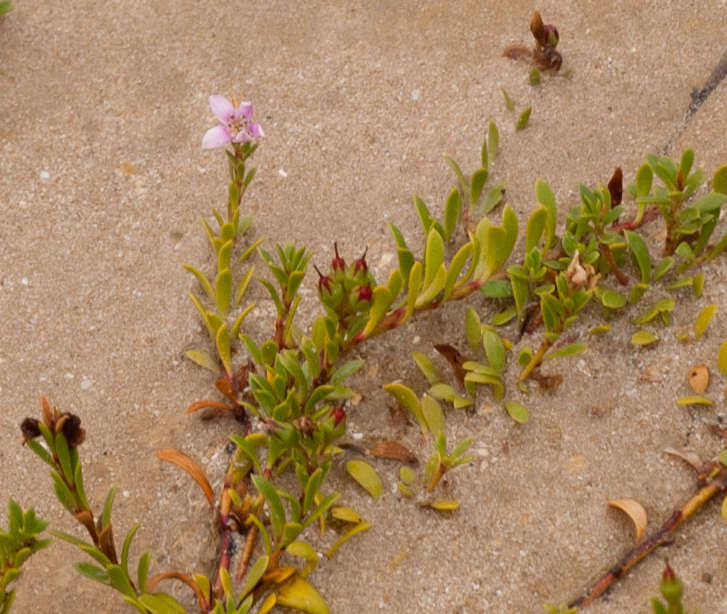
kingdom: Plantae
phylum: Tracheophyta
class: Magnoliopsida
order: Ericales
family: Primulaceae
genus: Samolus
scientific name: Samolus repens
